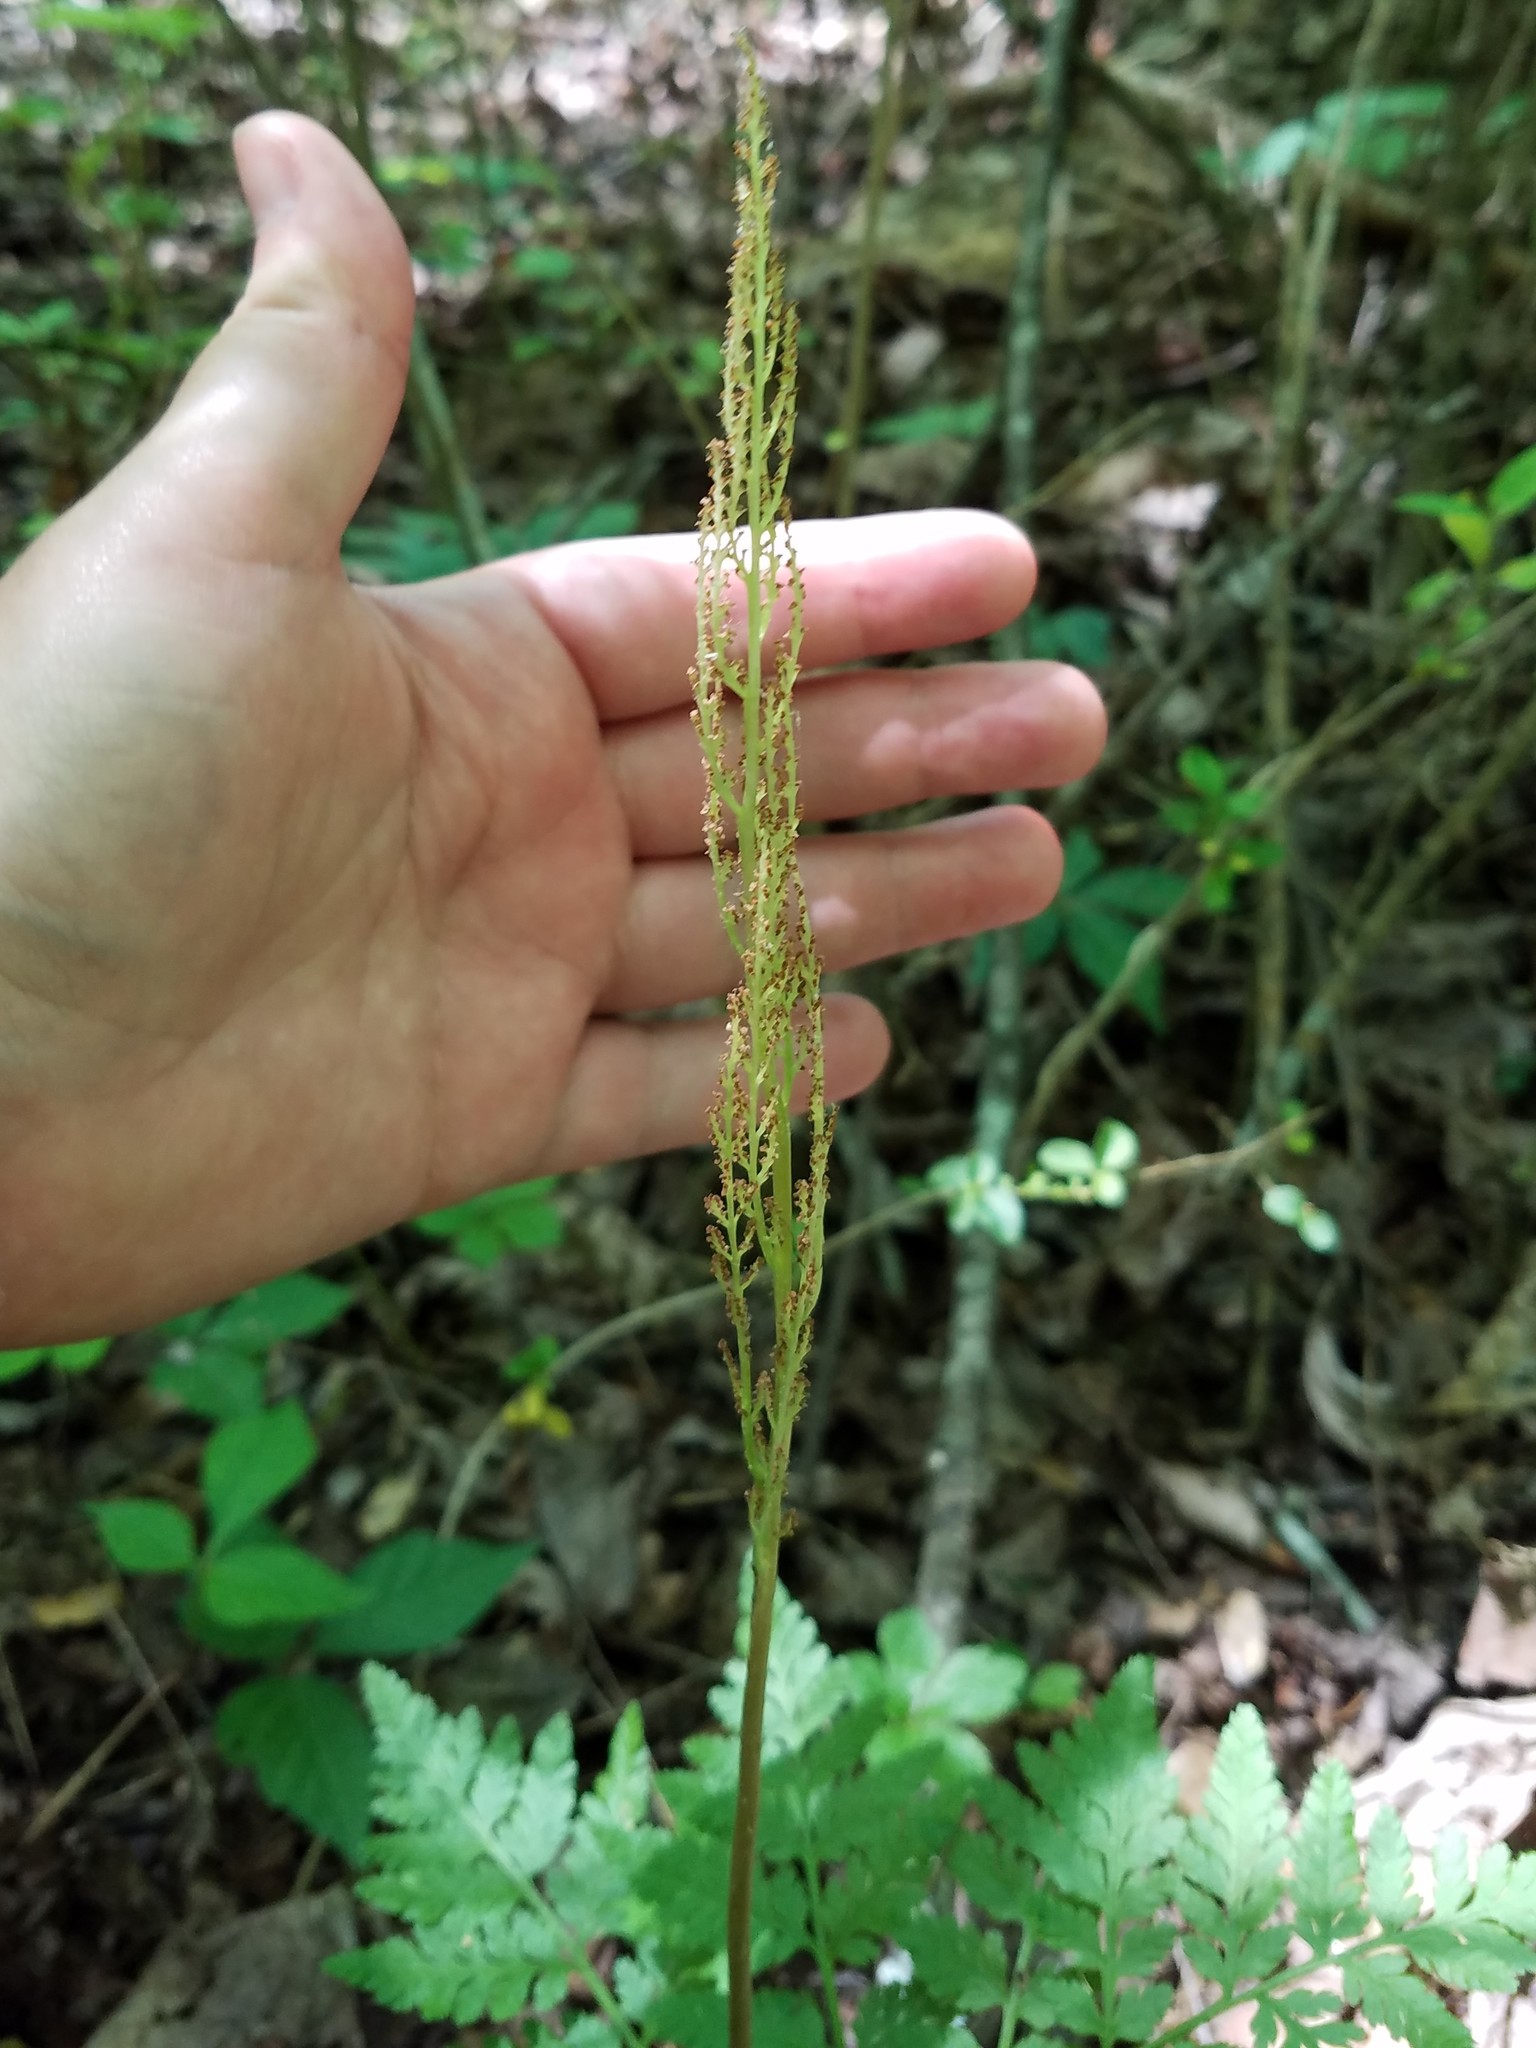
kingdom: Plantae
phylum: Tracheophyta
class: Polypodiopsida
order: Ophioglossales
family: Ophioglossaceae
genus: Botrypus
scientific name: Botrypus virginianus
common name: Common grapefern
